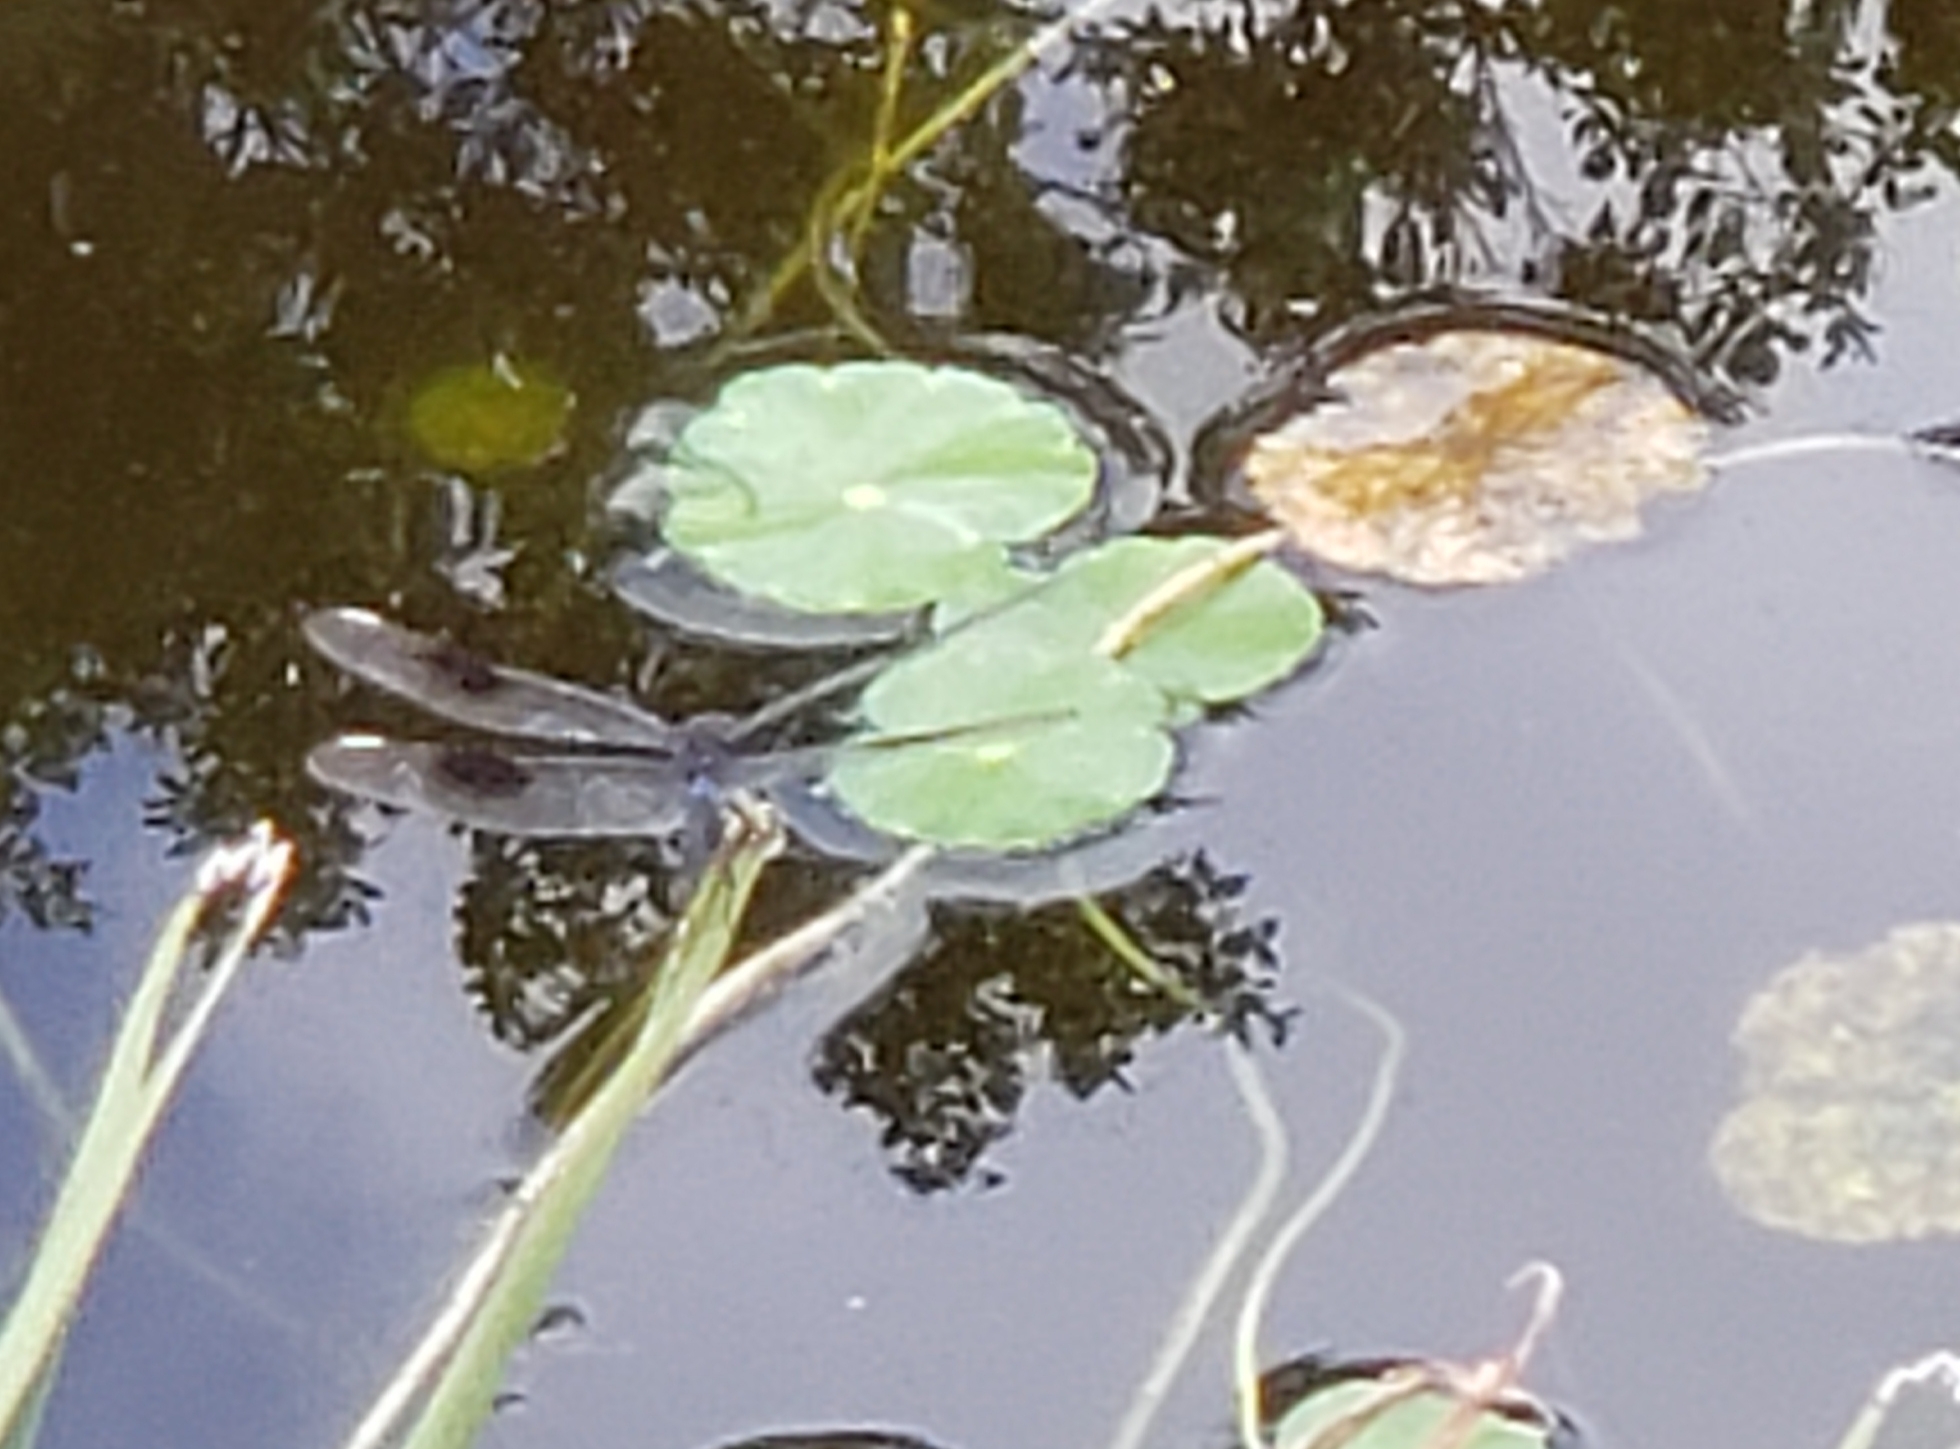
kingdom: Animalia
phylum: Arthropoda
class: Insecta
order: Odonata
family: Libellulidae
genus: Brachymesia
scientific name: Brachymesia gravida
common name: Four-spotted pennant
